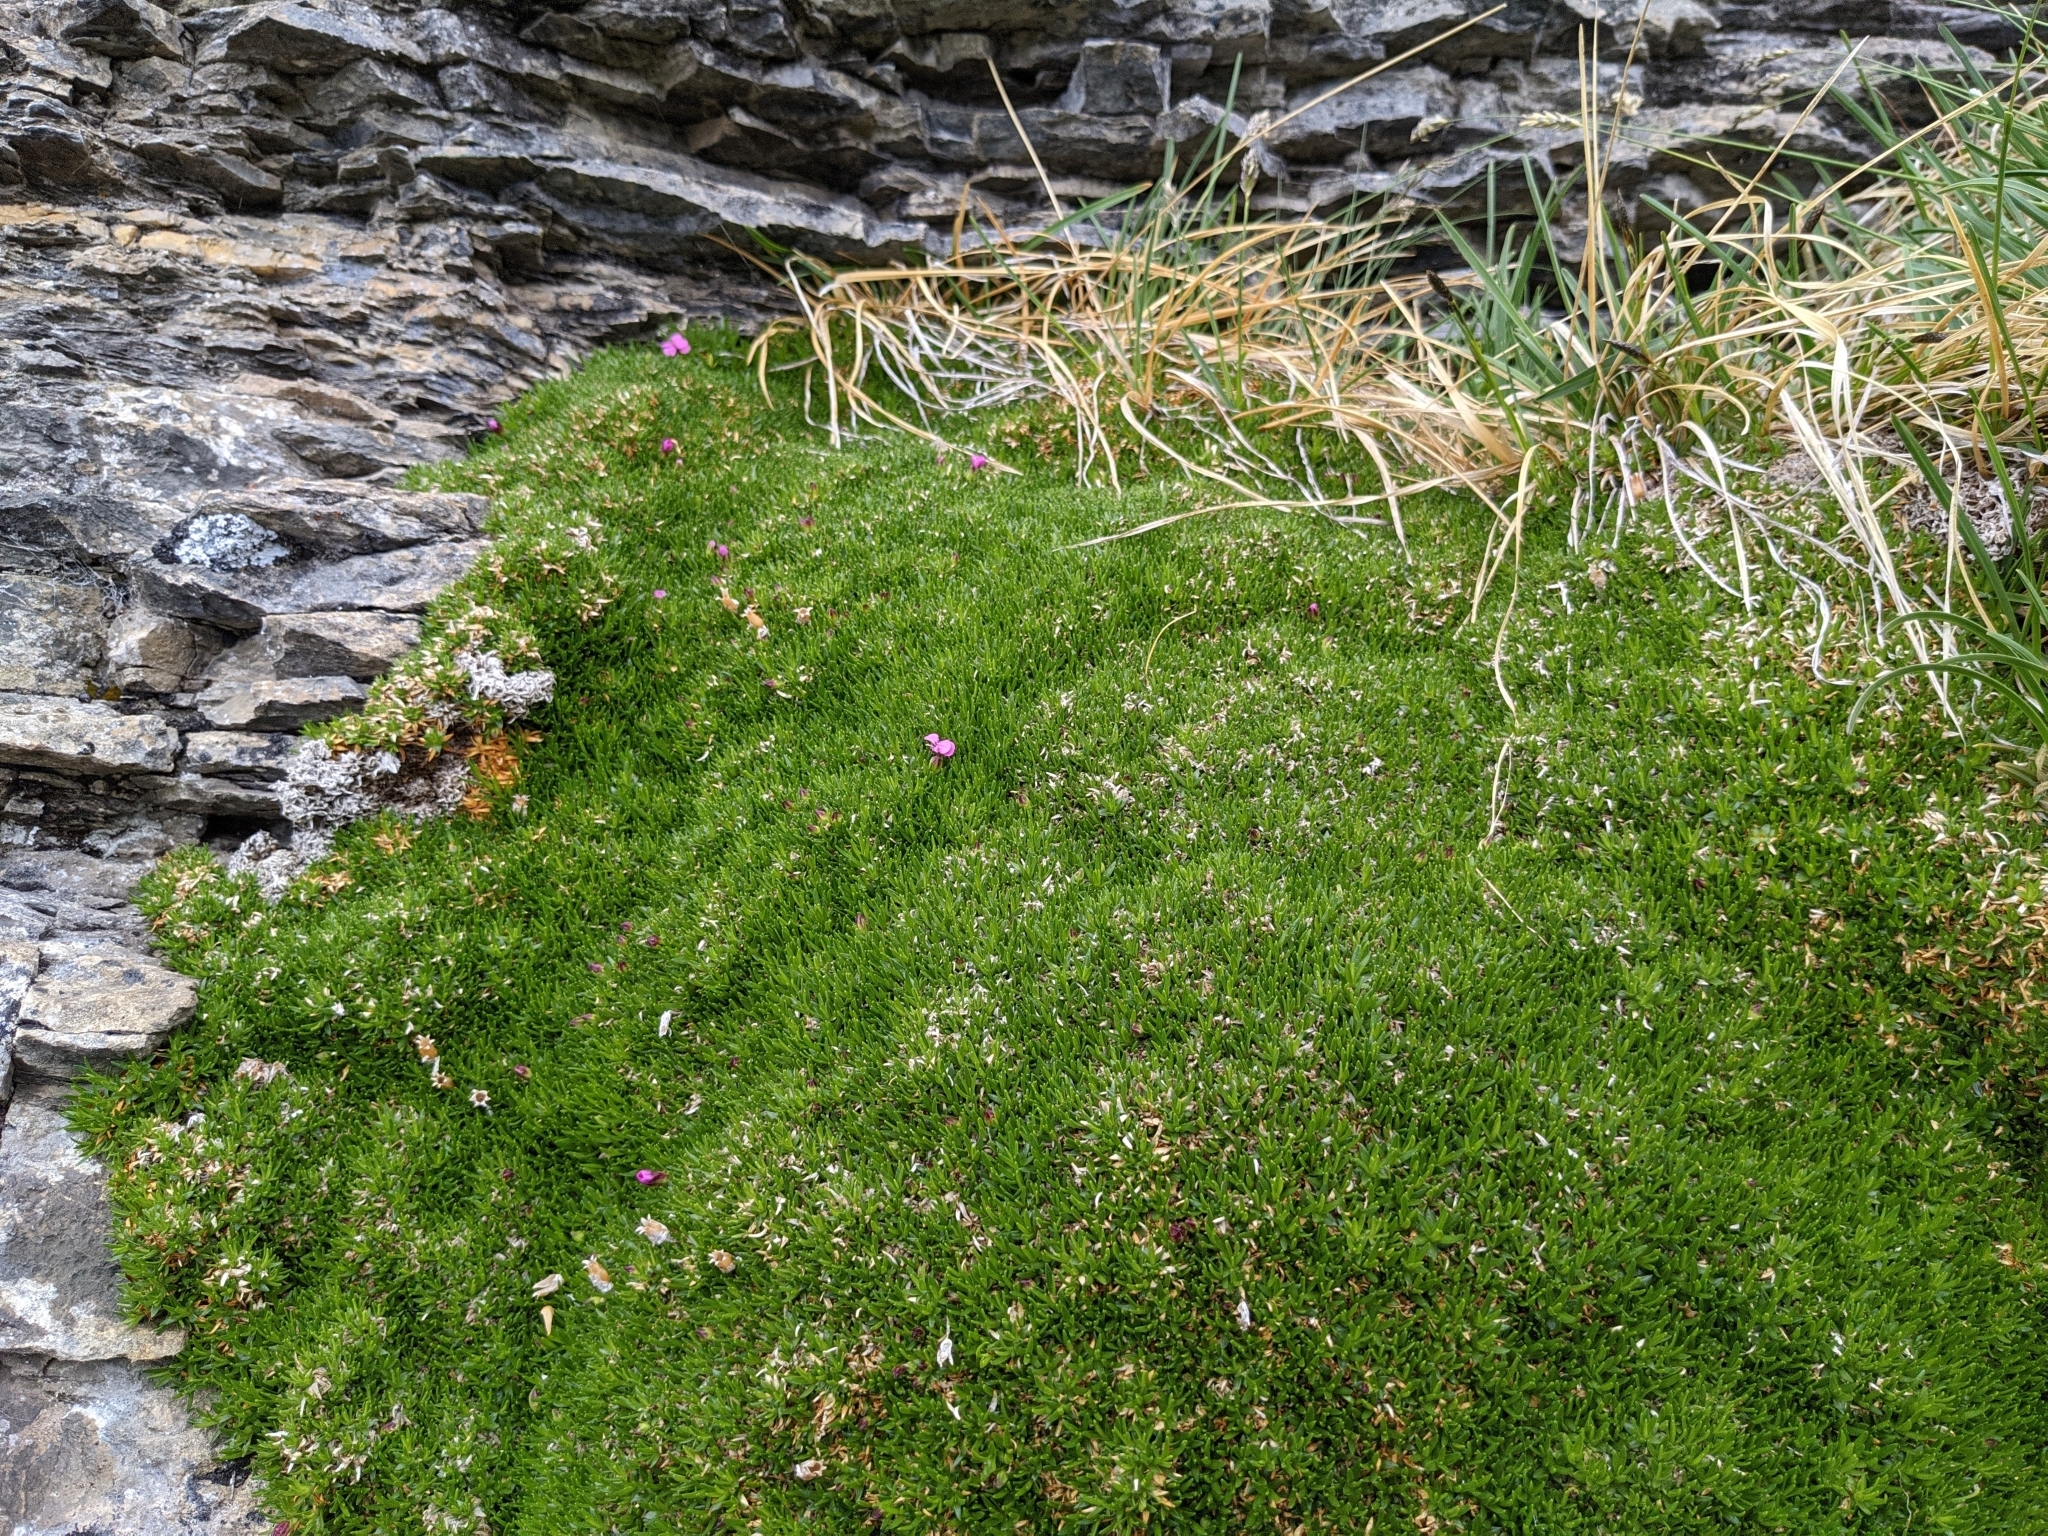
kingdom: Plantae
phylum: Tracheophyta
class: Magnoliopsida
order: Caryophyllales
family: Caryophyllaceae
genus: Silene
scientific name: Silene acaulis
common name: Moss campion
